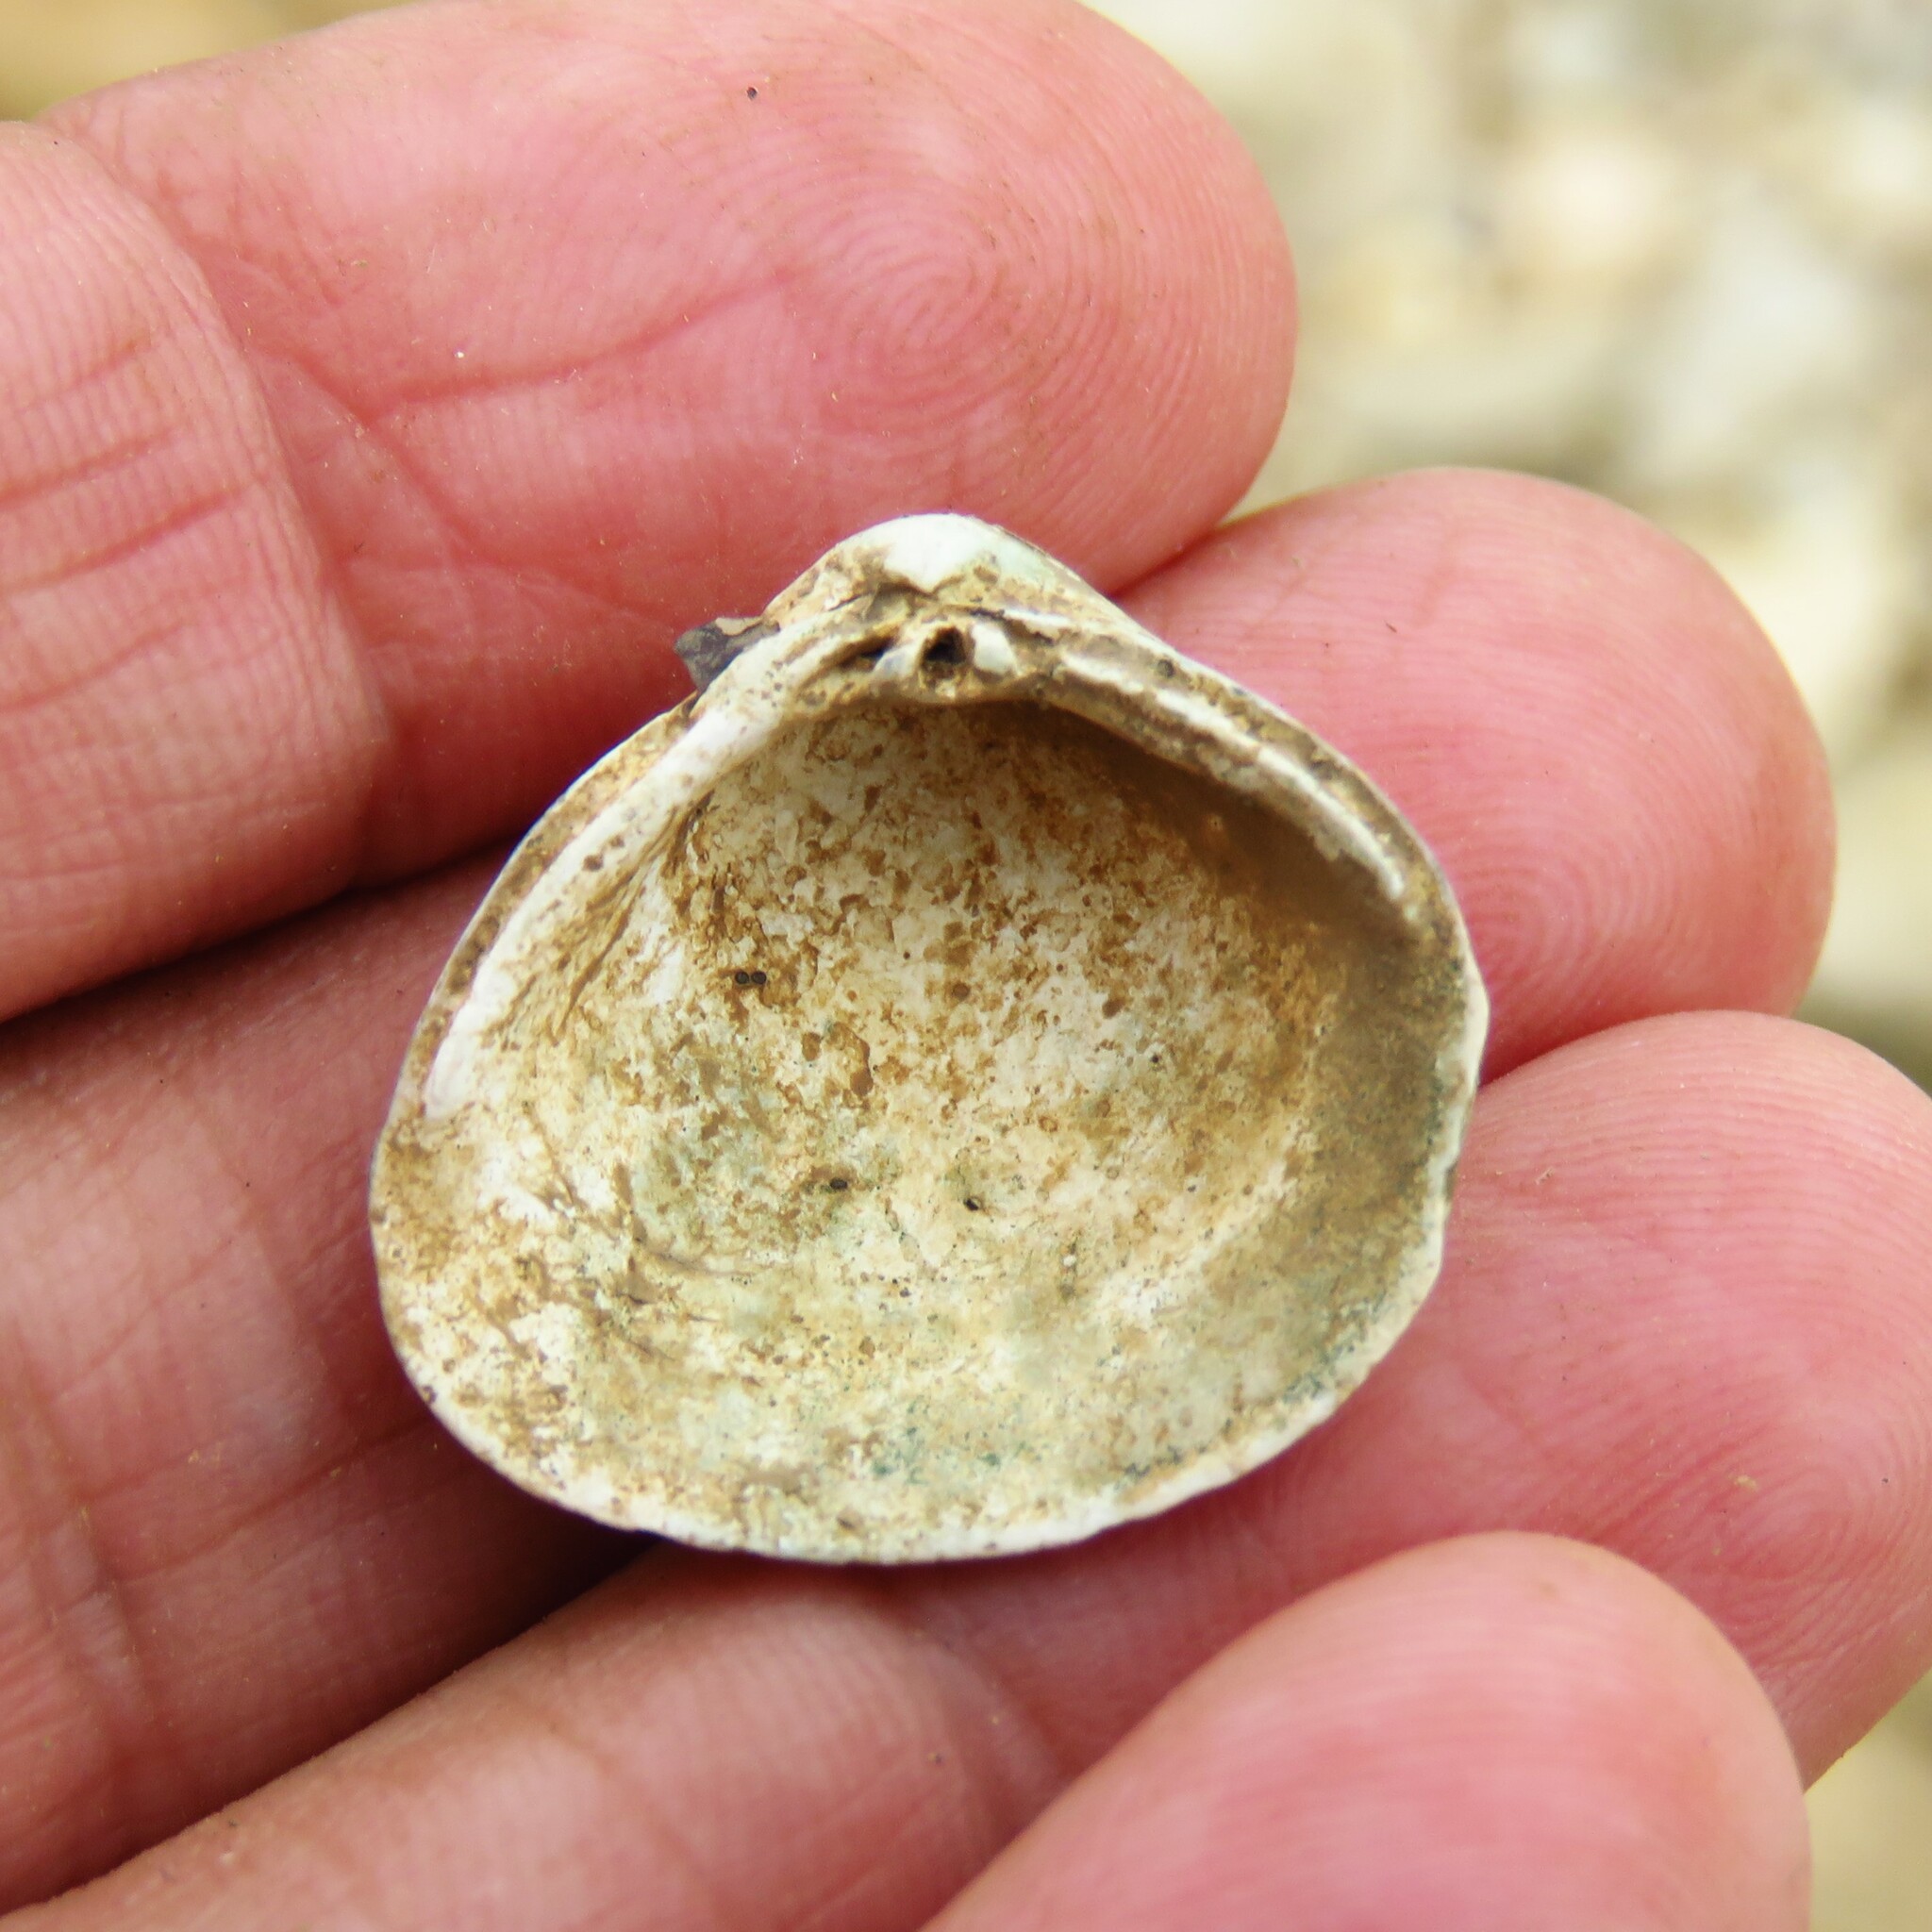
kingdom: Animalia
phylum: Mollusca
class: Bivalvia
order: Venerida
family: Cyrenidae
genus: Corbicula
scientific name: Corbicula fluminea
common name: Asian clam
